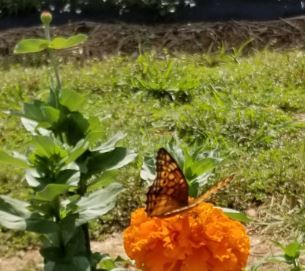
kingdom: Animalia
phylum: Arthropoda
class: Insecta
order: Lepidoptera
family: Nymphalidae
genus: Euptoieta
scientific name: Euptoieta claudia
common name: Variegated fritillary
